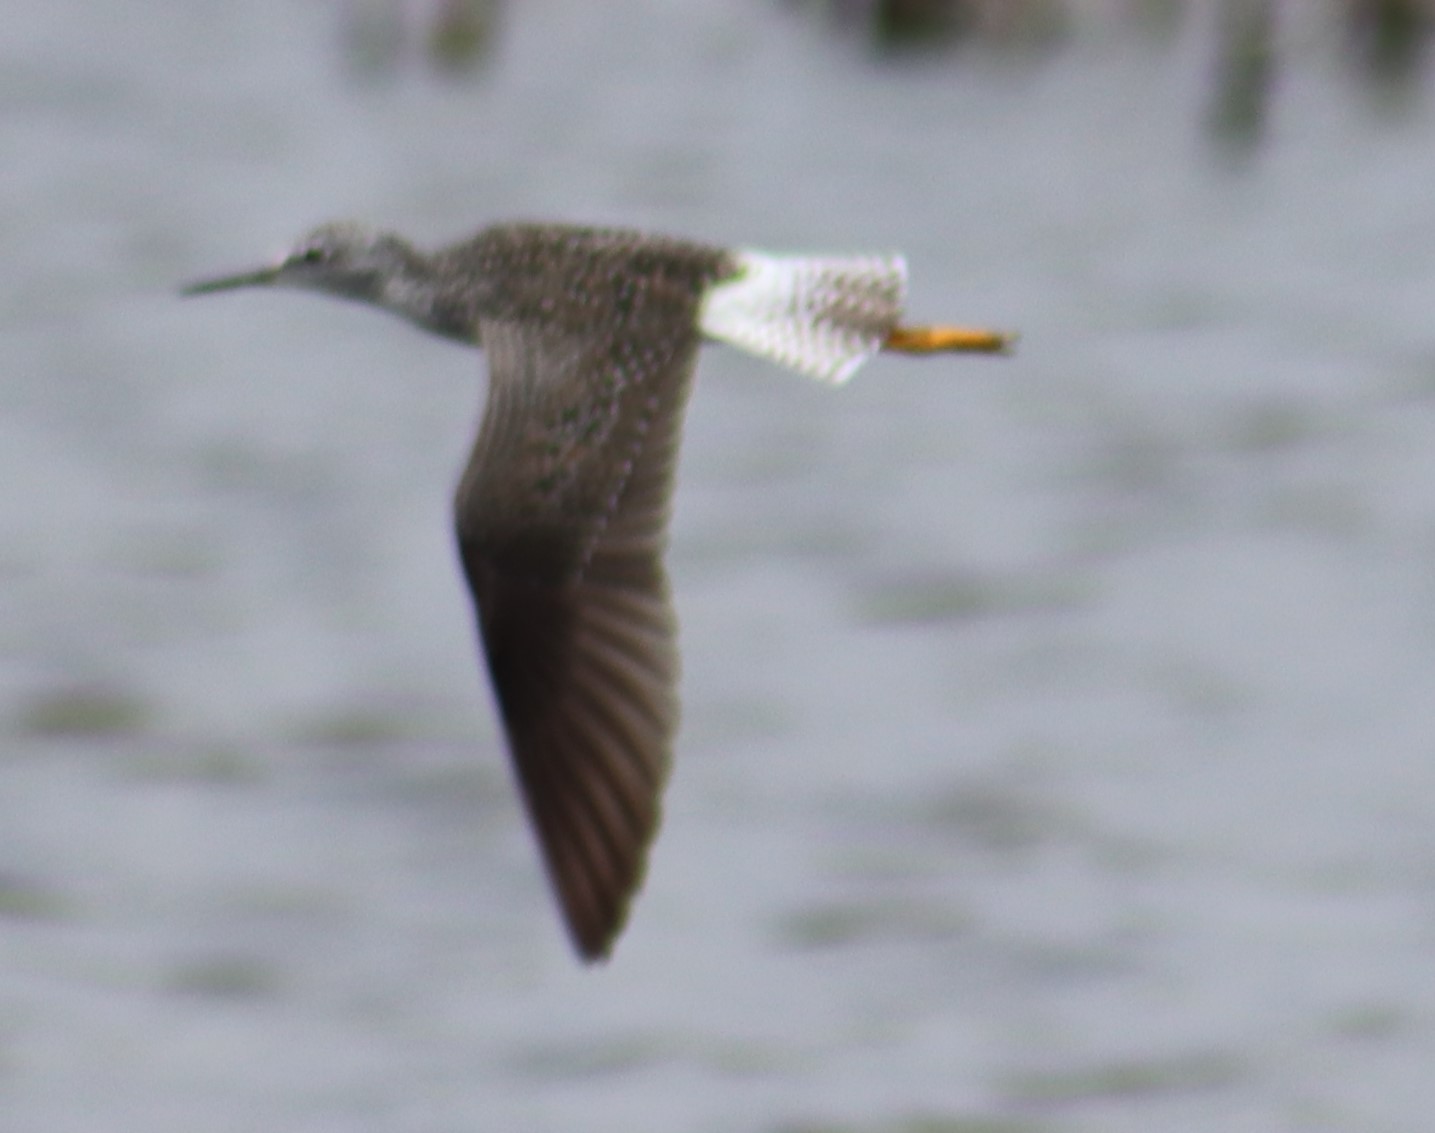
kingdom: Animalia
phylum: Chordata
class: Aves
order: Charadriiformes
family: Scolopacidae
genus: Tringa
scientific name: Tringa flavipes
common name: Lesser yellowlegs
